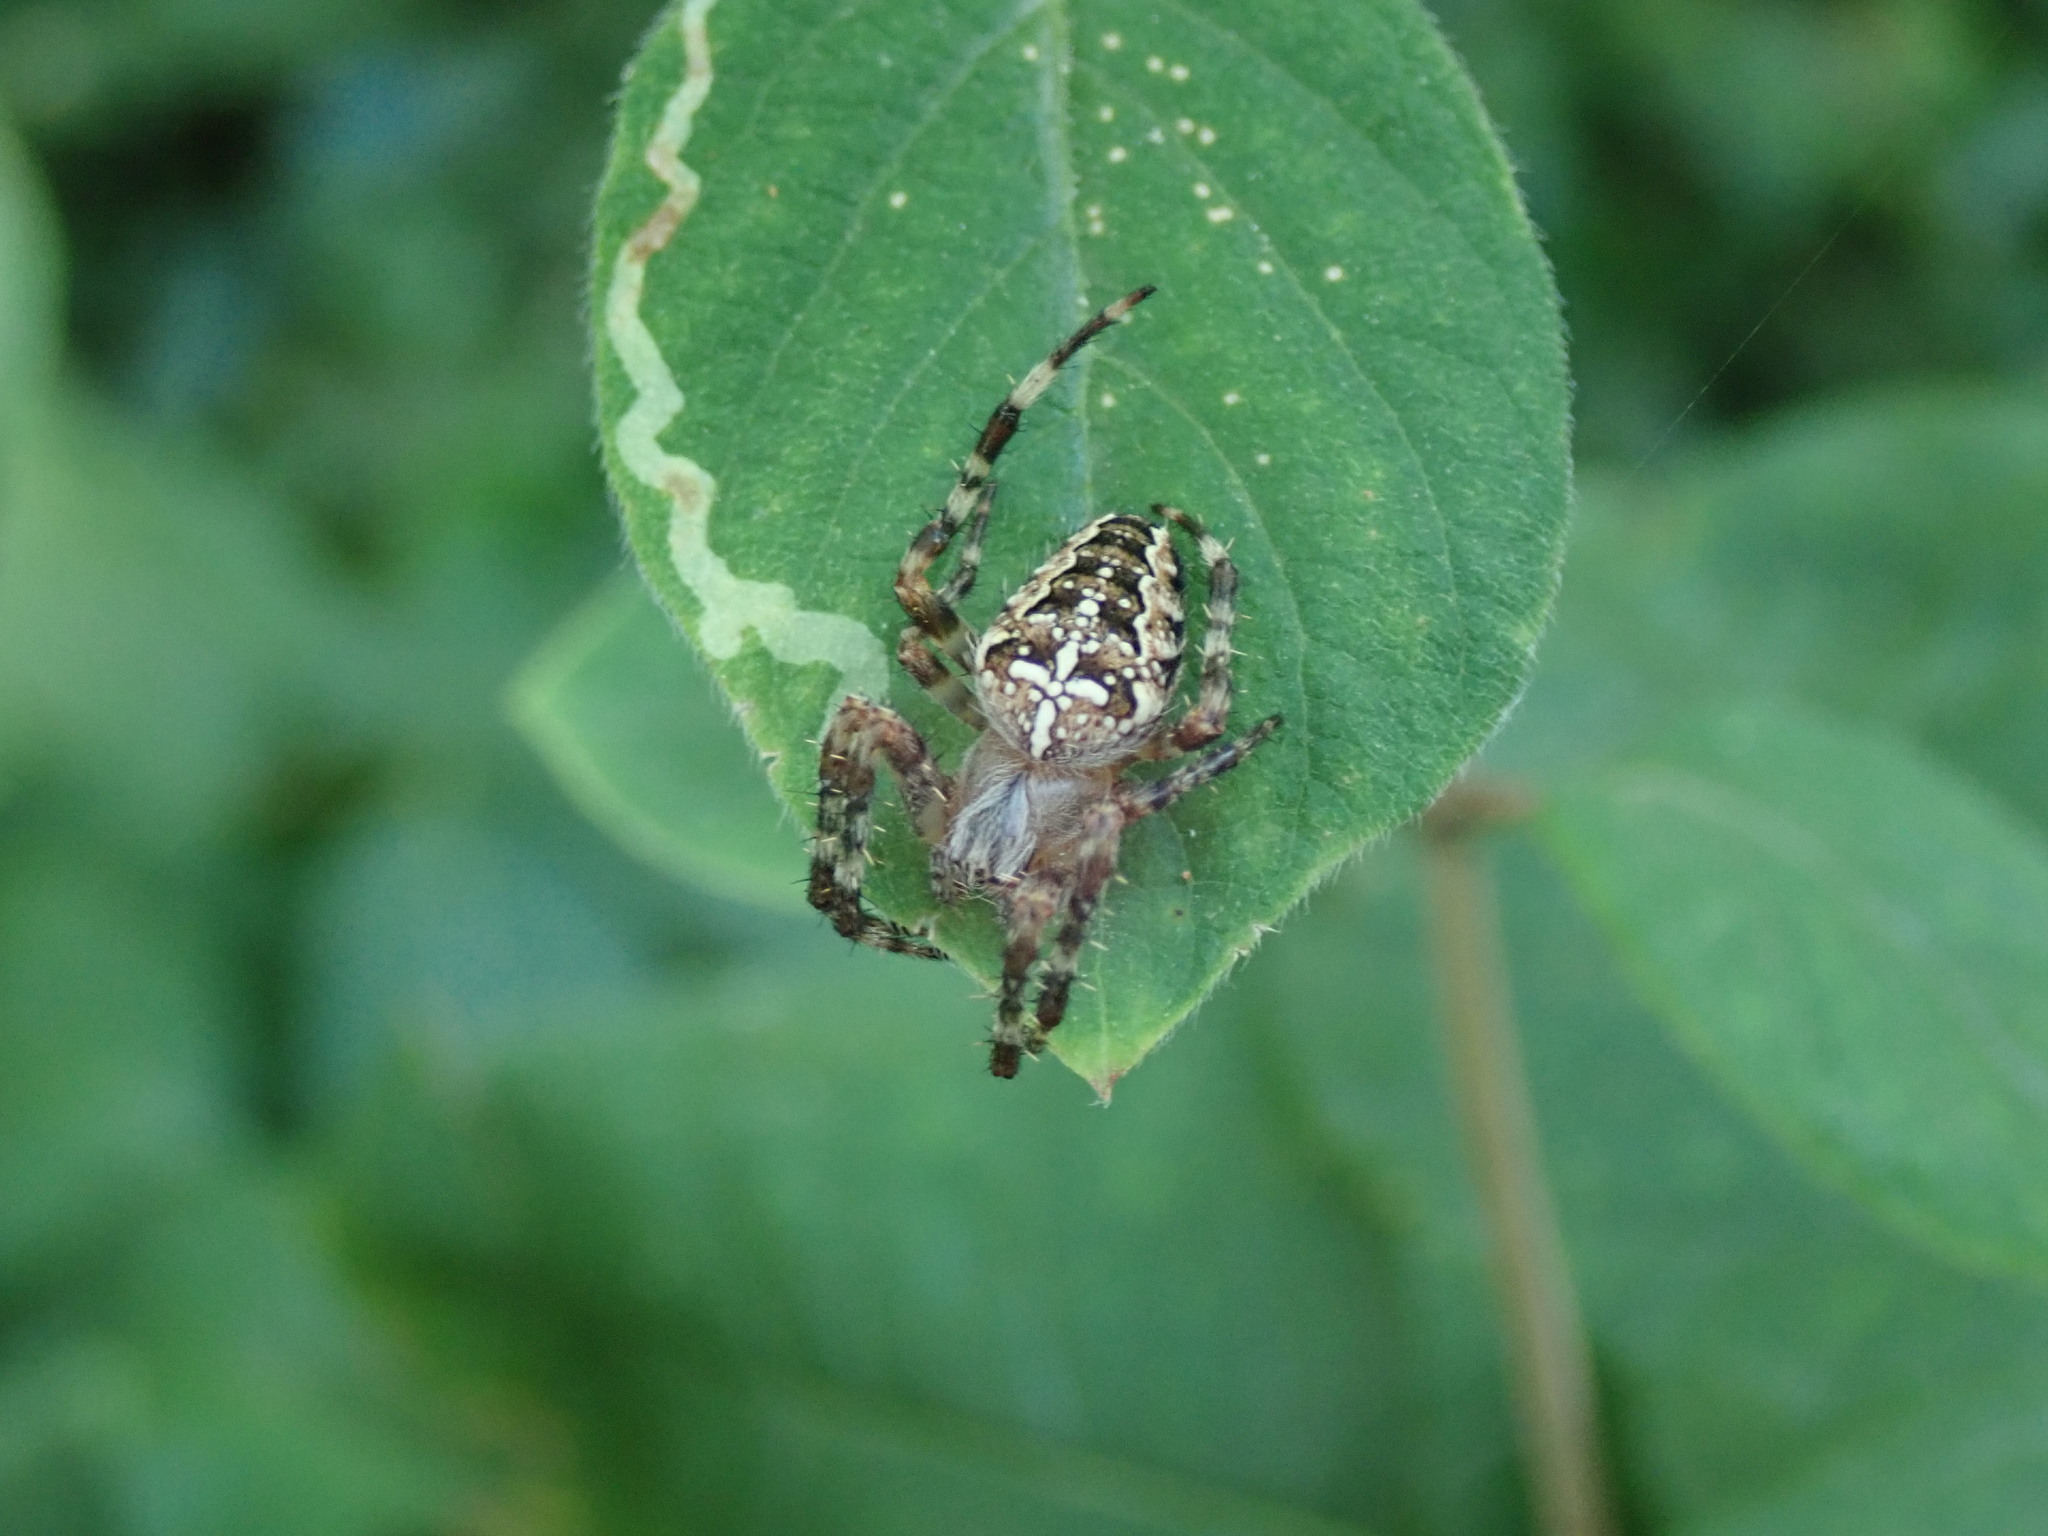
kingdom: Animalia
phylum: Arthropoda
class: Arachnida
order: Araneae
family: Araneidae
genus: Araneus
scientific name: Araneus diadematus
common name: Cross orbweaver
